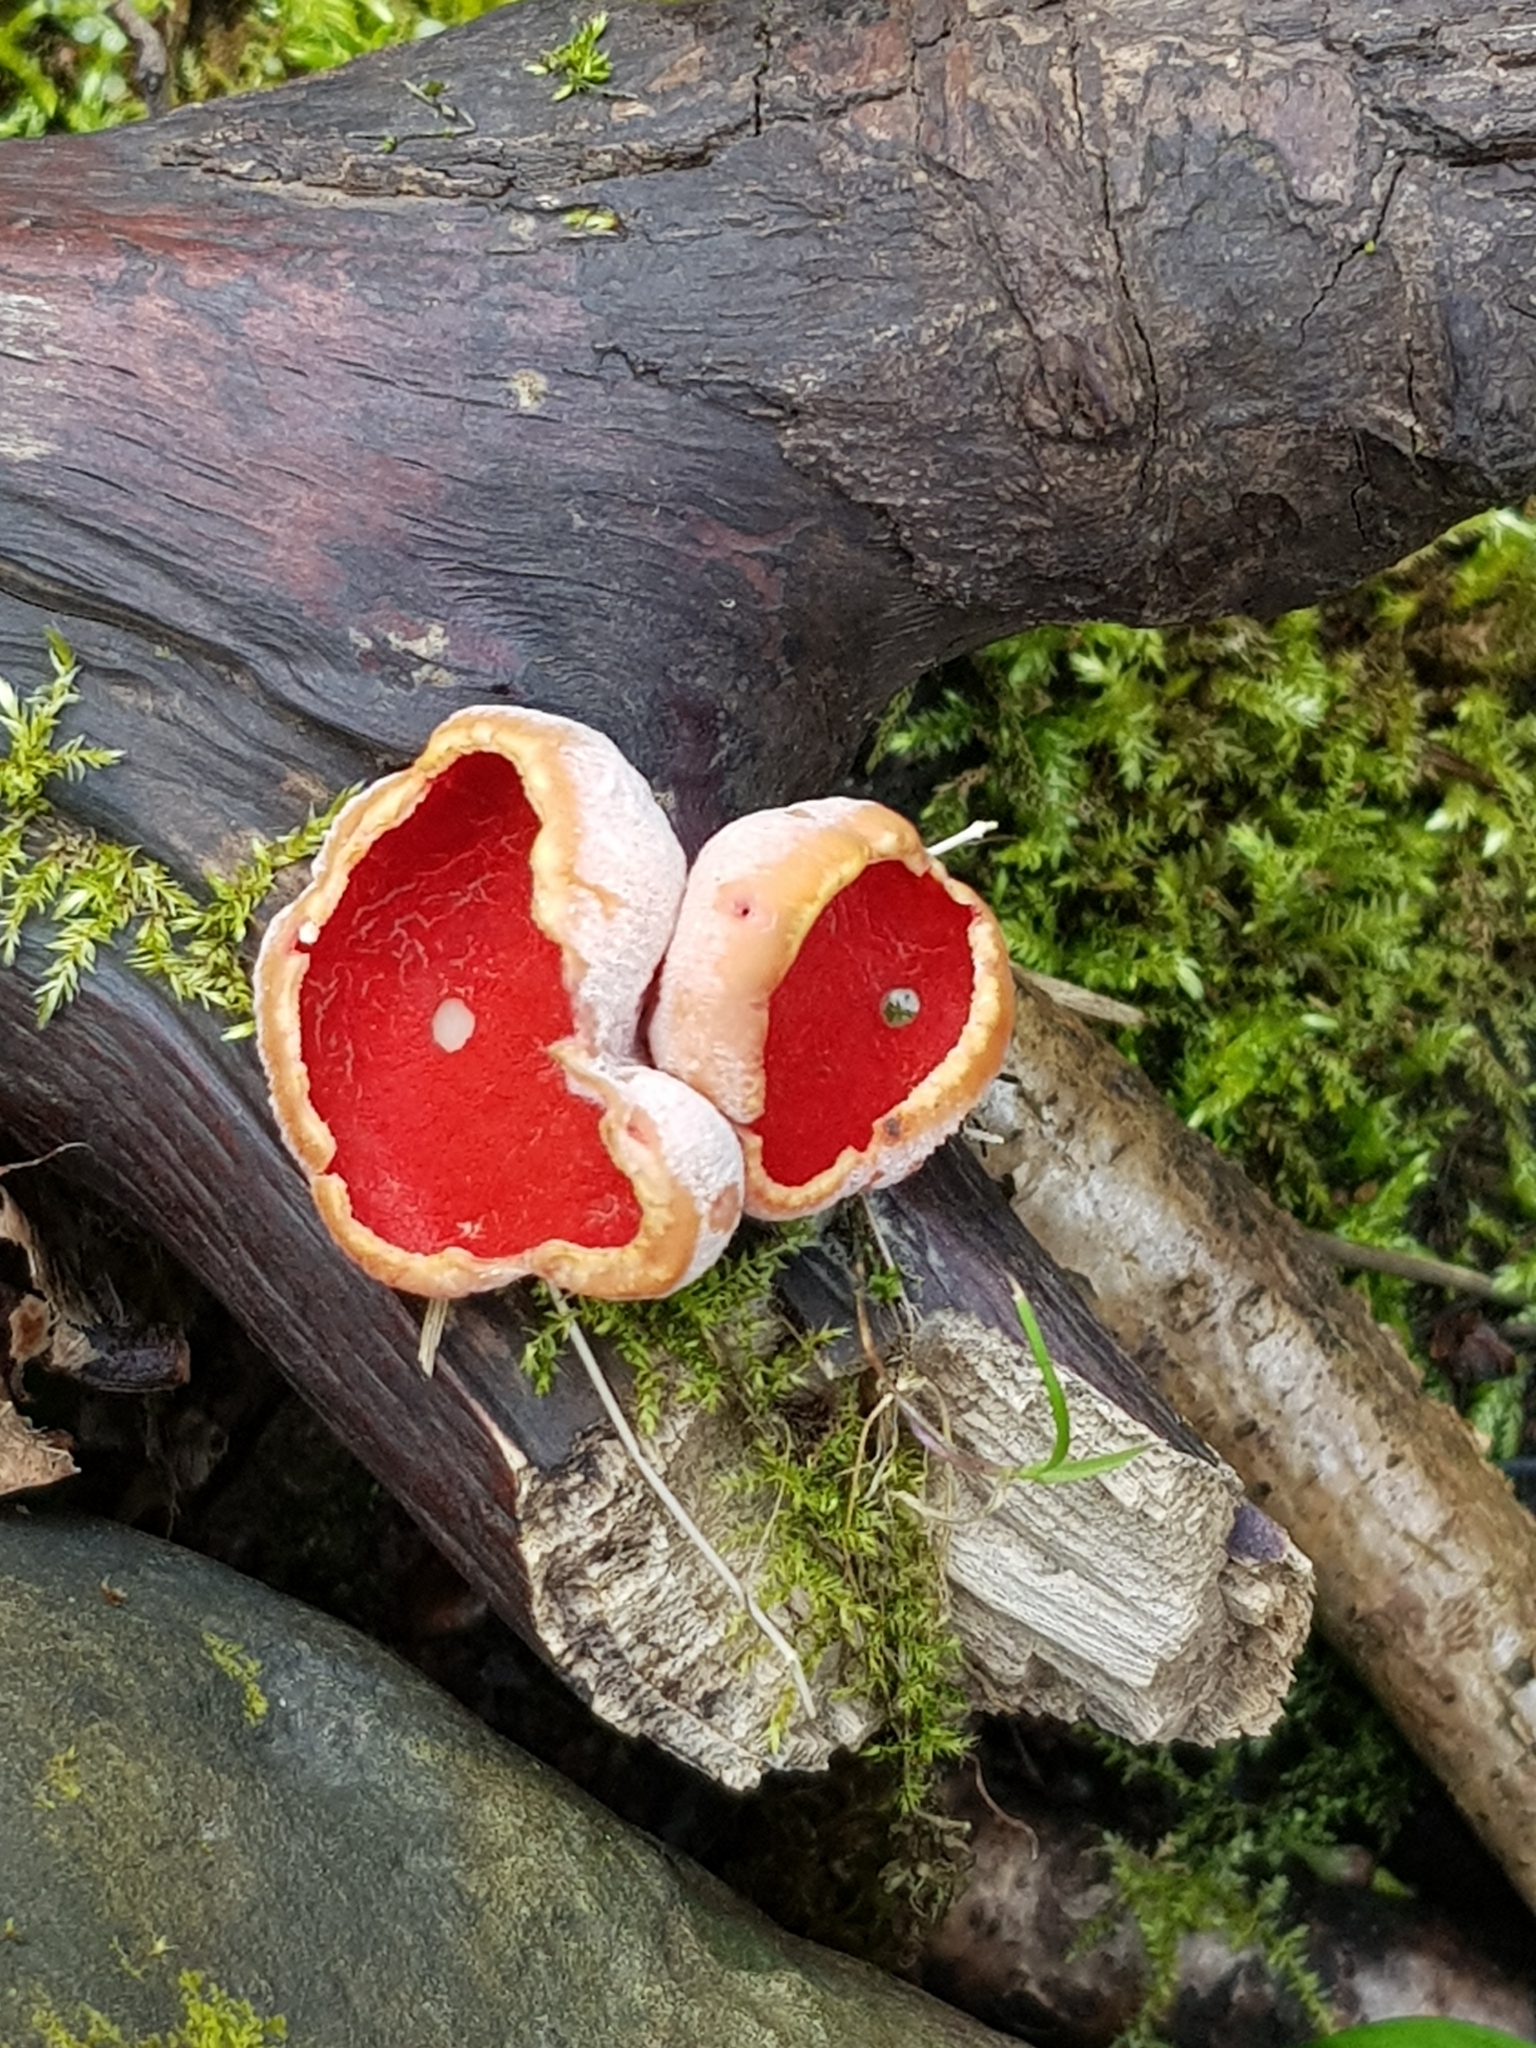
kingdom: Fungi
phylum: Ascomycota
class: Pezizomycetes
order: Pezizales
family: Sarcoscyphaceae
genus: Sarcoscypha
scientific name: Sarcoscypha
